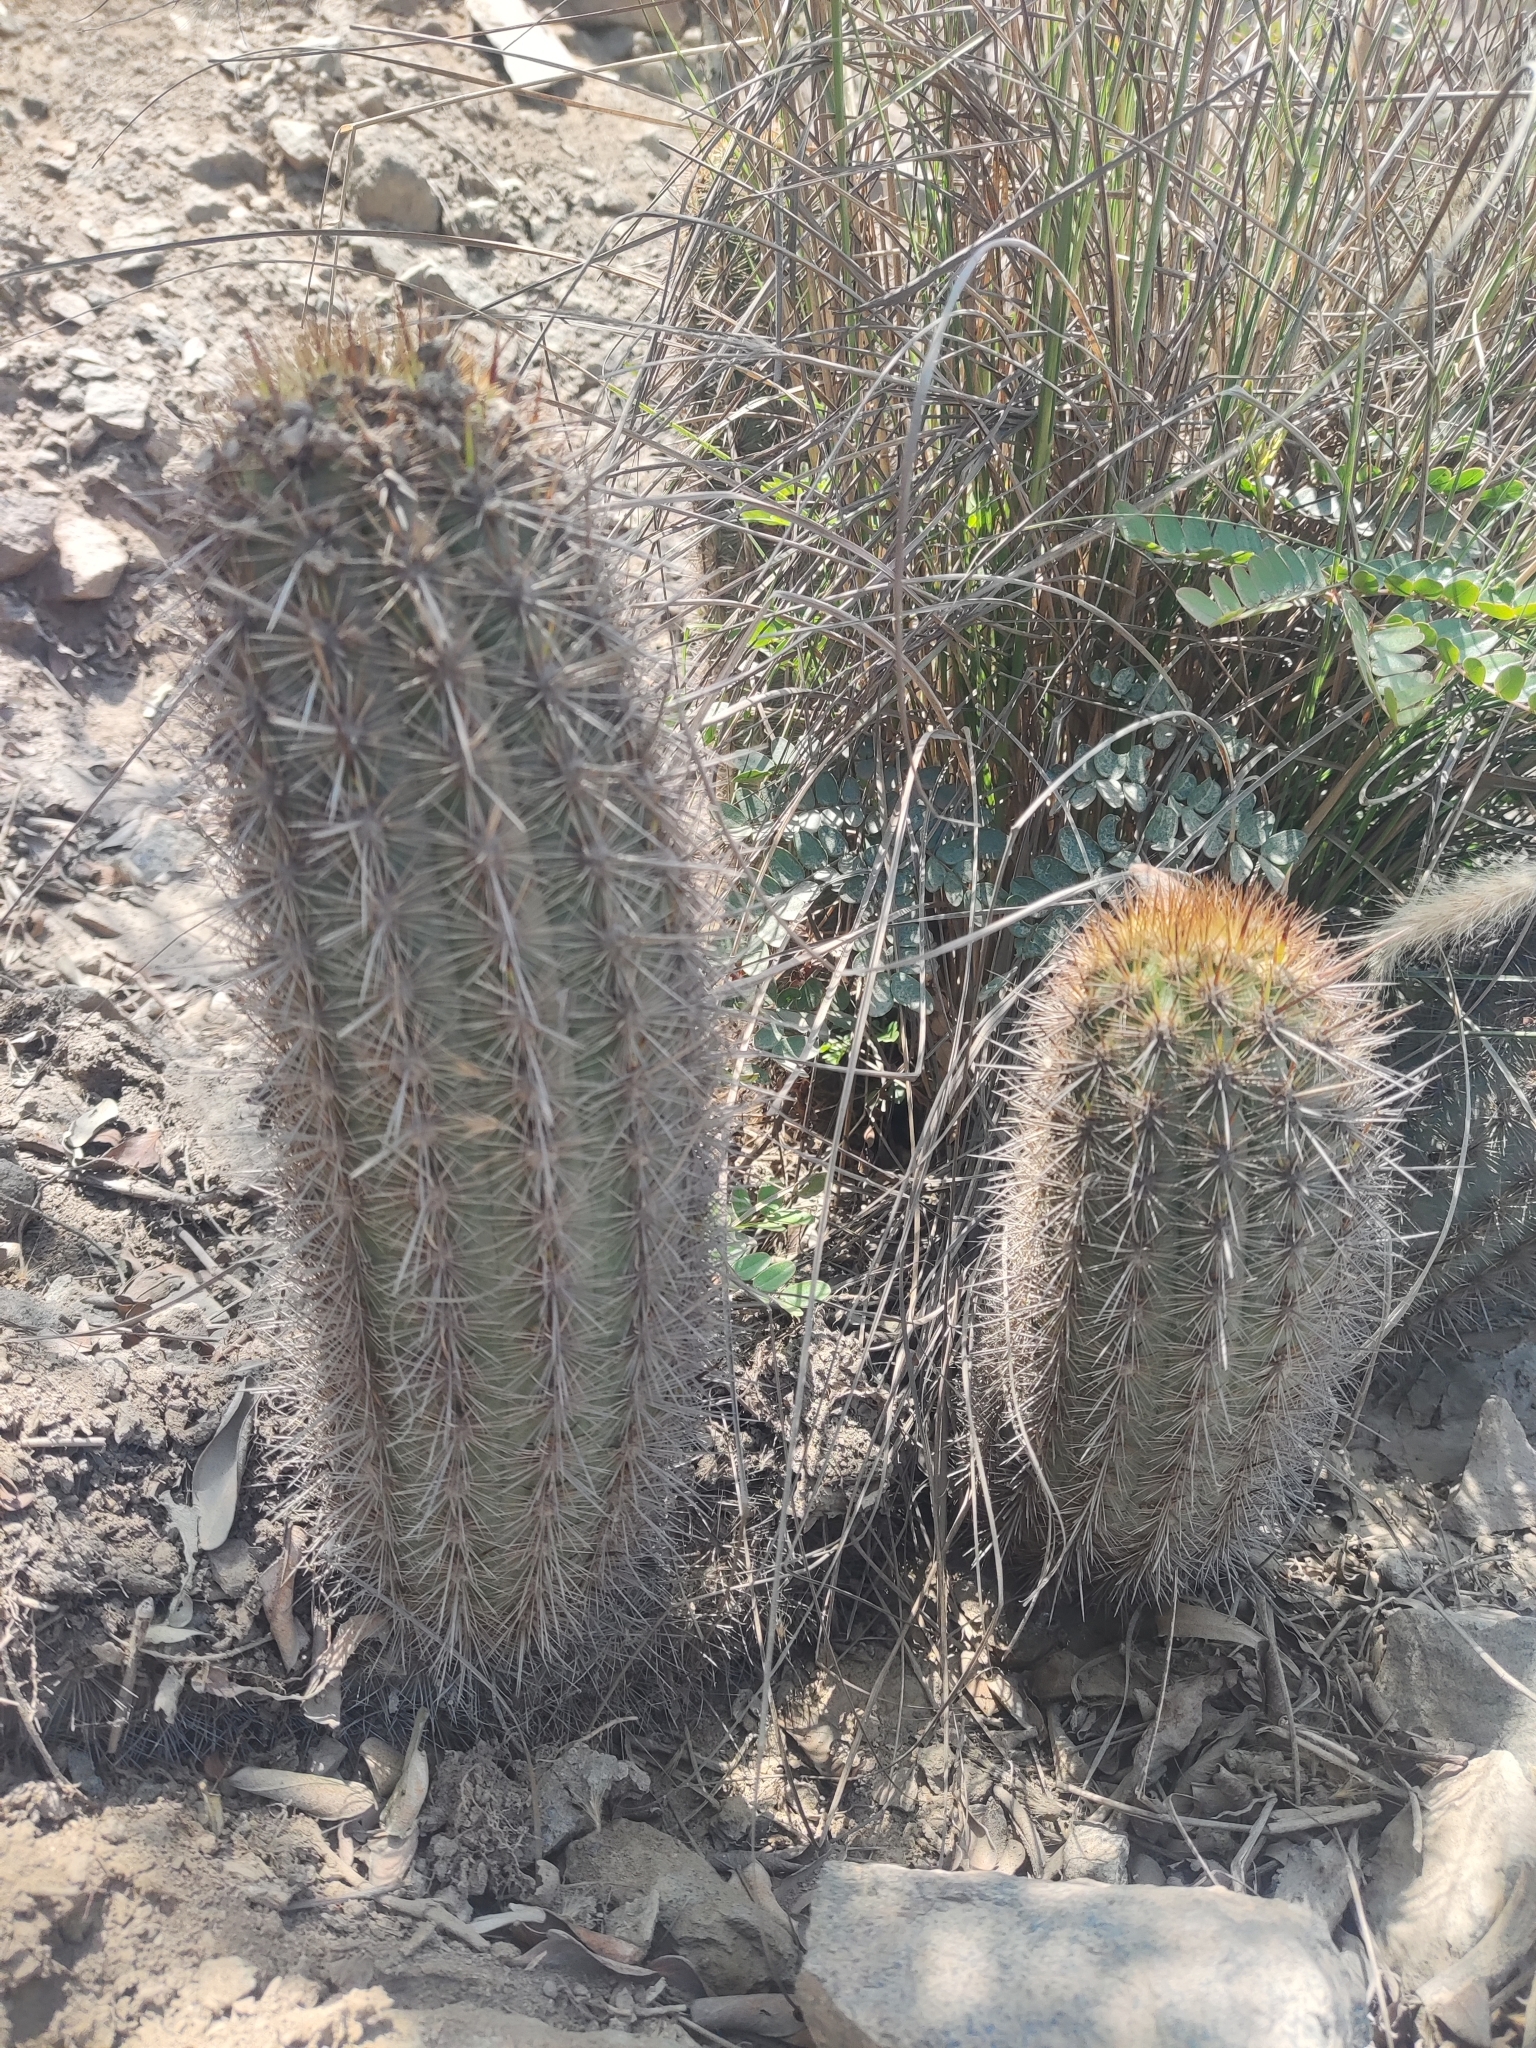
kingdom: Plantae
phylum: Tracheophyta
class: Magnoliopsida
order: Caryophyllales
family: Cactaceae
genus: Haageocereus
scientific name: Haageocereus acranthus
